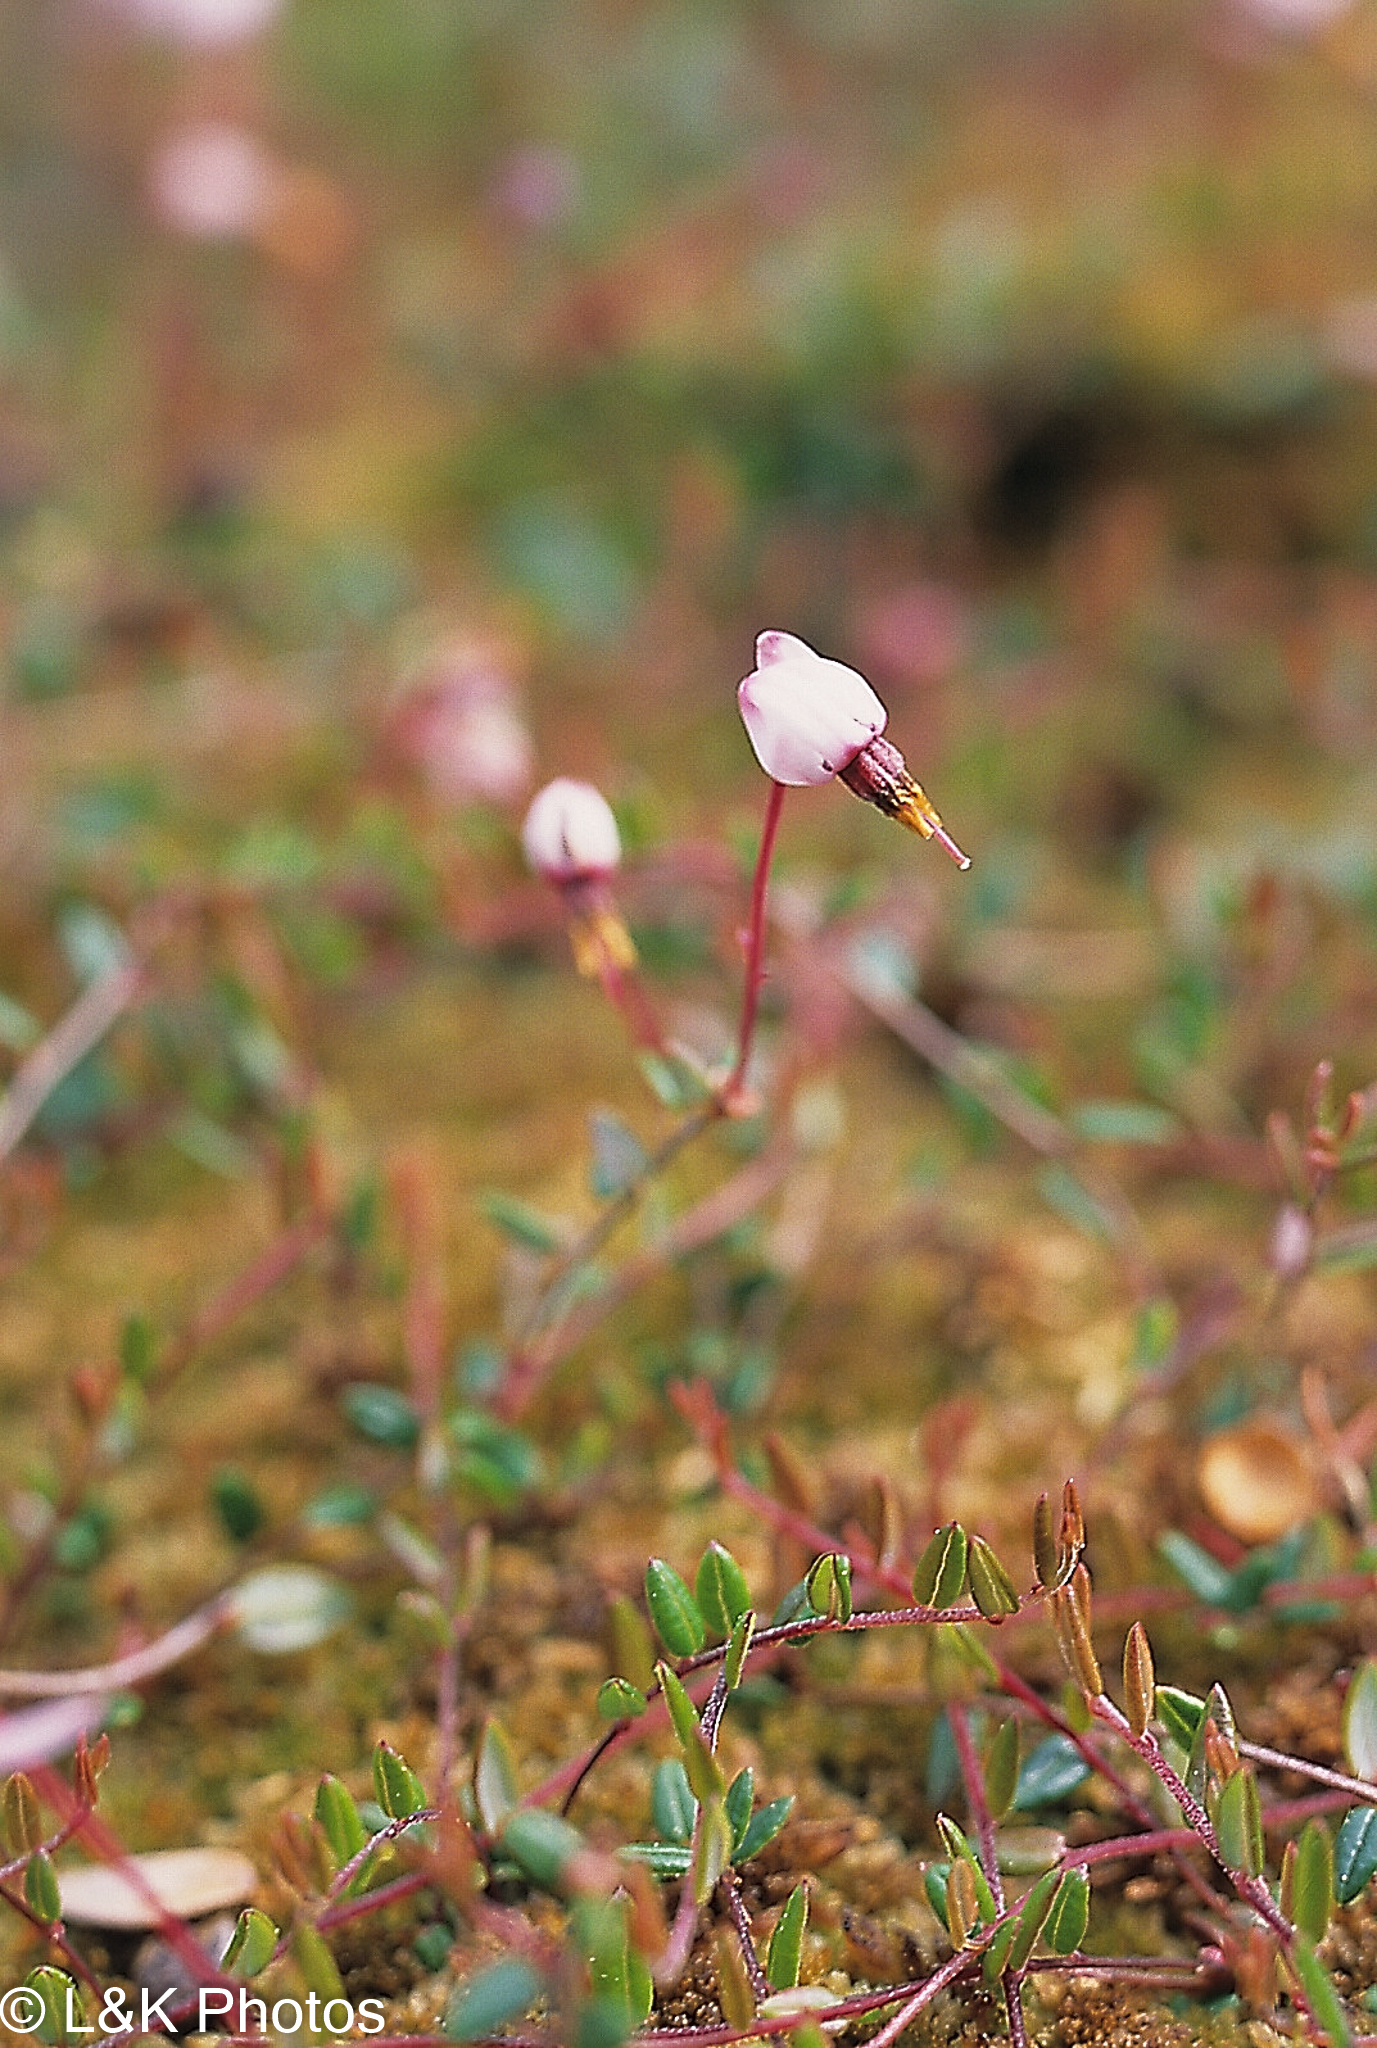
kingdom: Plantae
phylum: Tracheophyta
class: Magnoliopsida
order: Ericales
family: Ericaceae
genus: Vaccinium
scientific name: Vaccinium oxycoccos
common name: Cranberry
